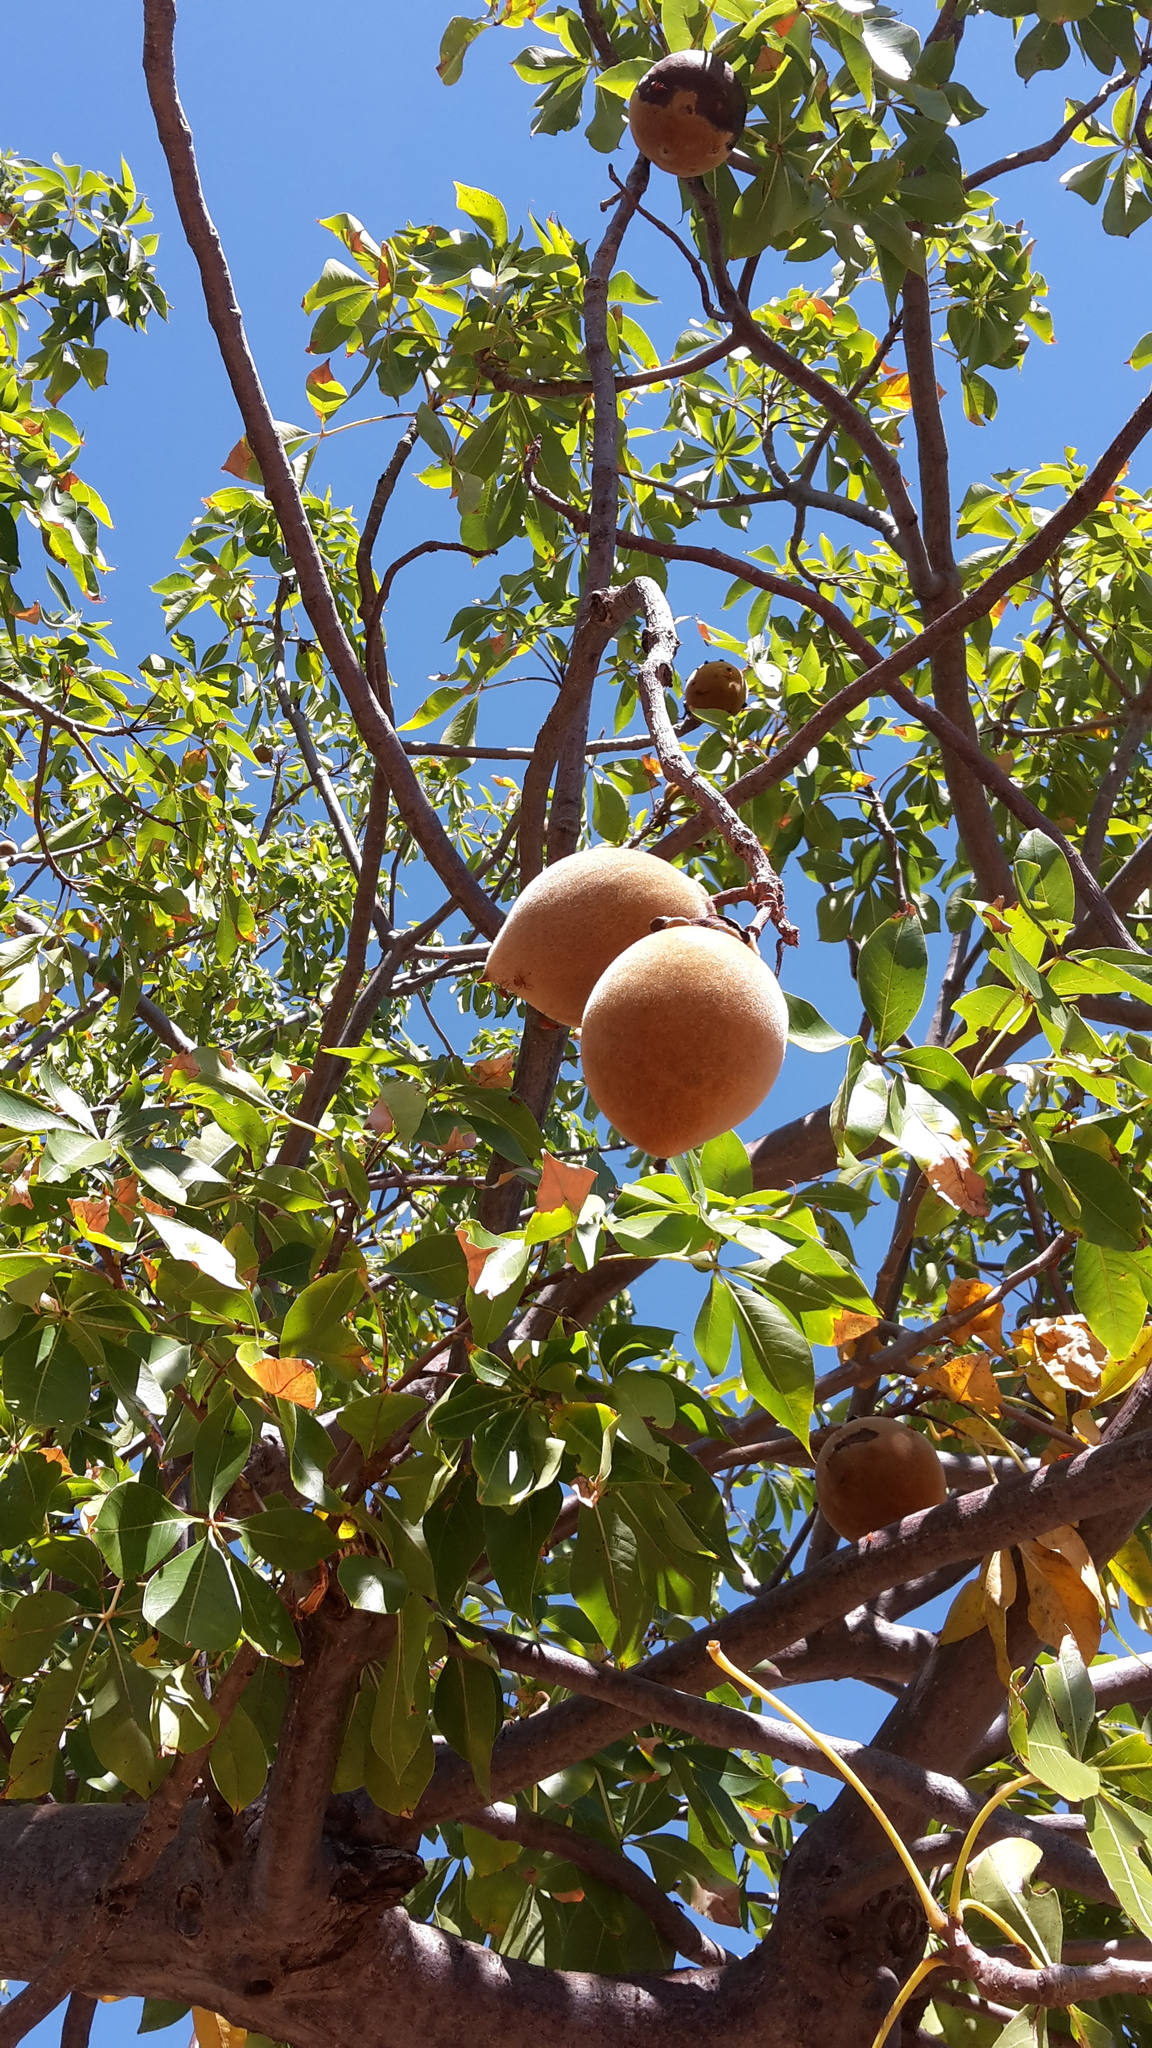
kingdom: Plantae
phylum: Tracheophyta
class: Magnoliopsida
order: Malvales
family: Malvaceae
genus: Adansonia
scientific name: Adansonia gregorii
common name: Australian baobab
